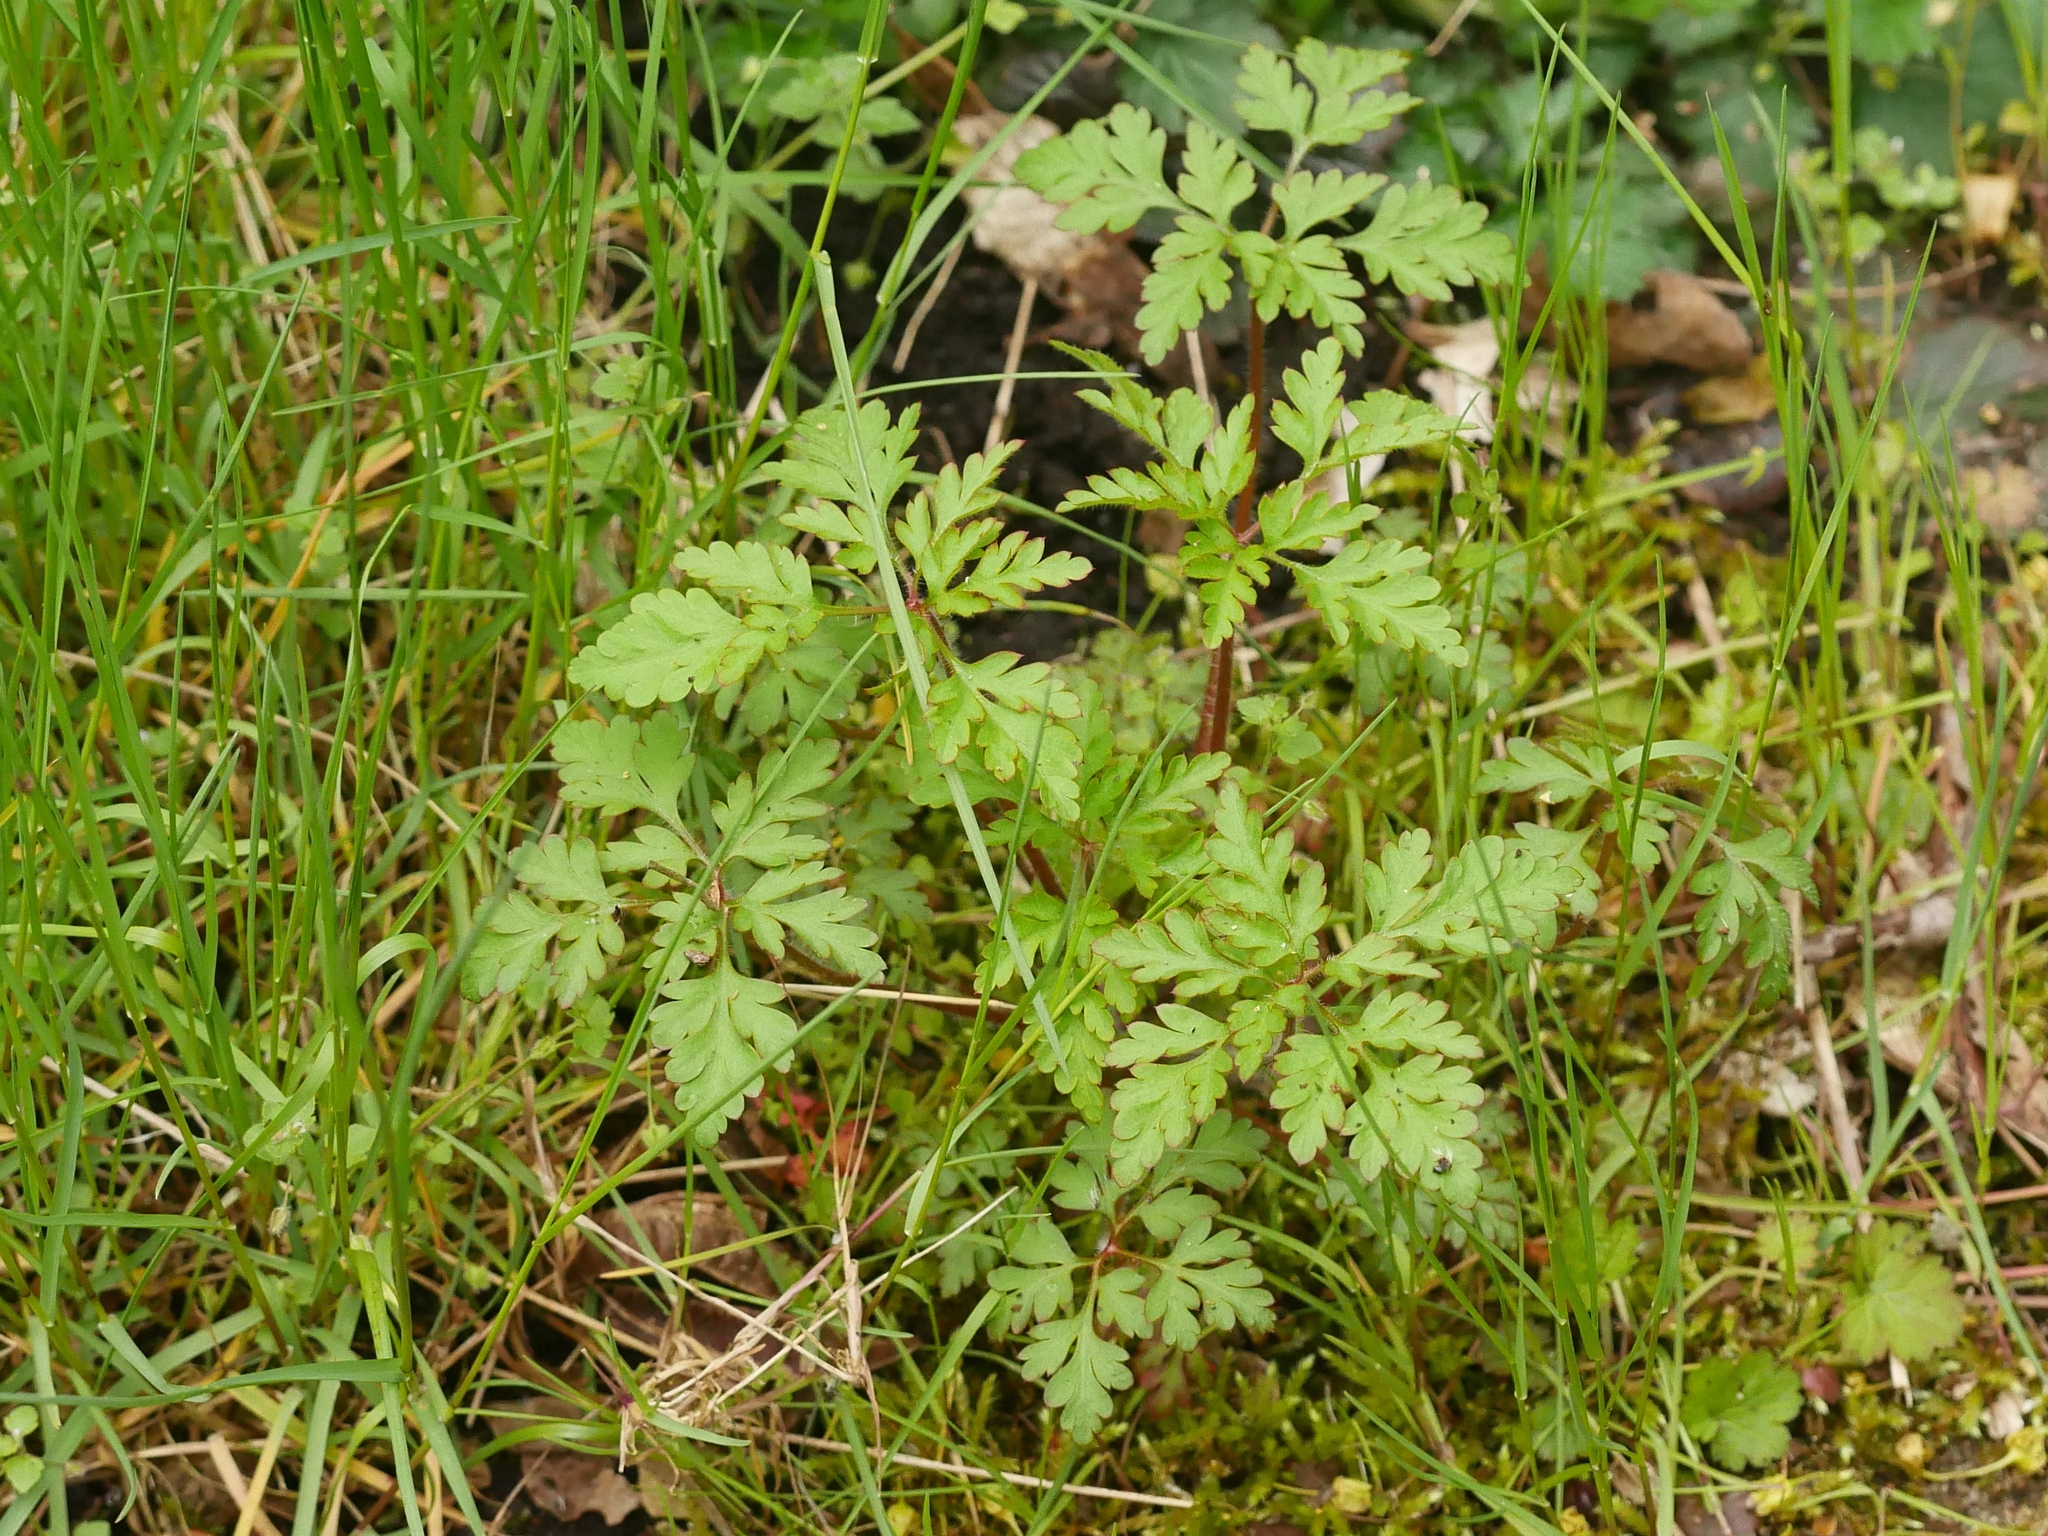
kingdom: Plantae
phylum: Tracheophyta
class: Magnoliopsida
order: Geraniales
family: Geraniaceae
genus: Geranium
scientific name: Geranium robertianum
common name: Herb-robert
